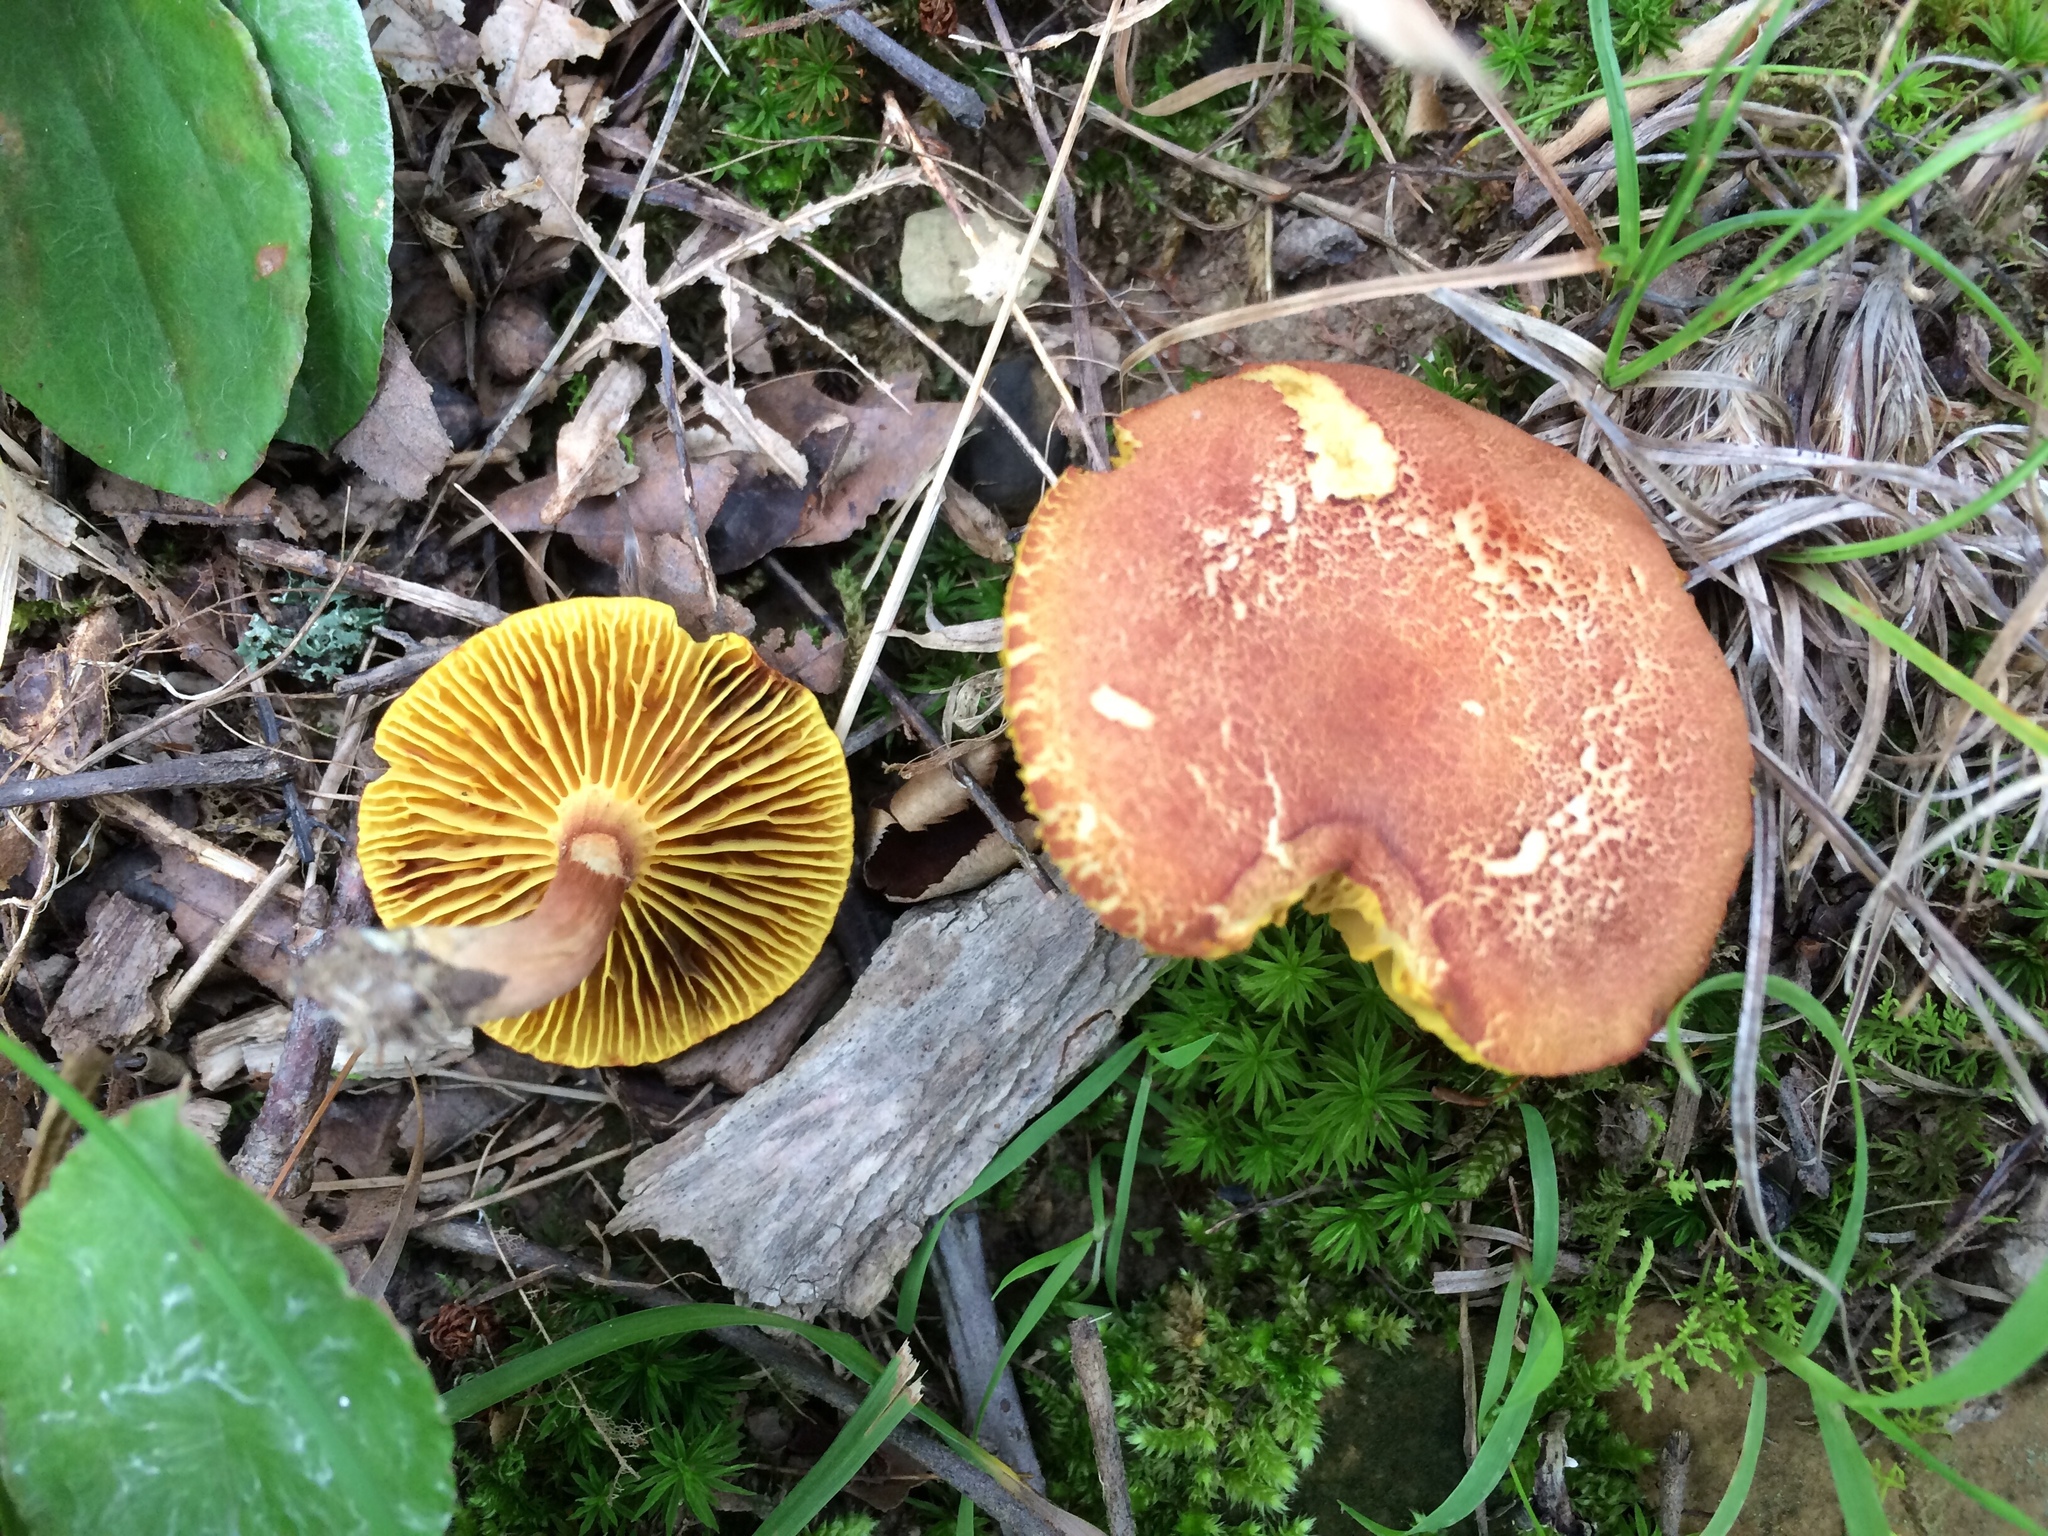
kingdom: Fungi
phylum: Basidiomycota
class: Agaricomycetes
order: Boletales
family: Boletaceae
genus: Phylloporus
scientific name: Phylloporus leucomycelinus
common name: Gilled bolete
